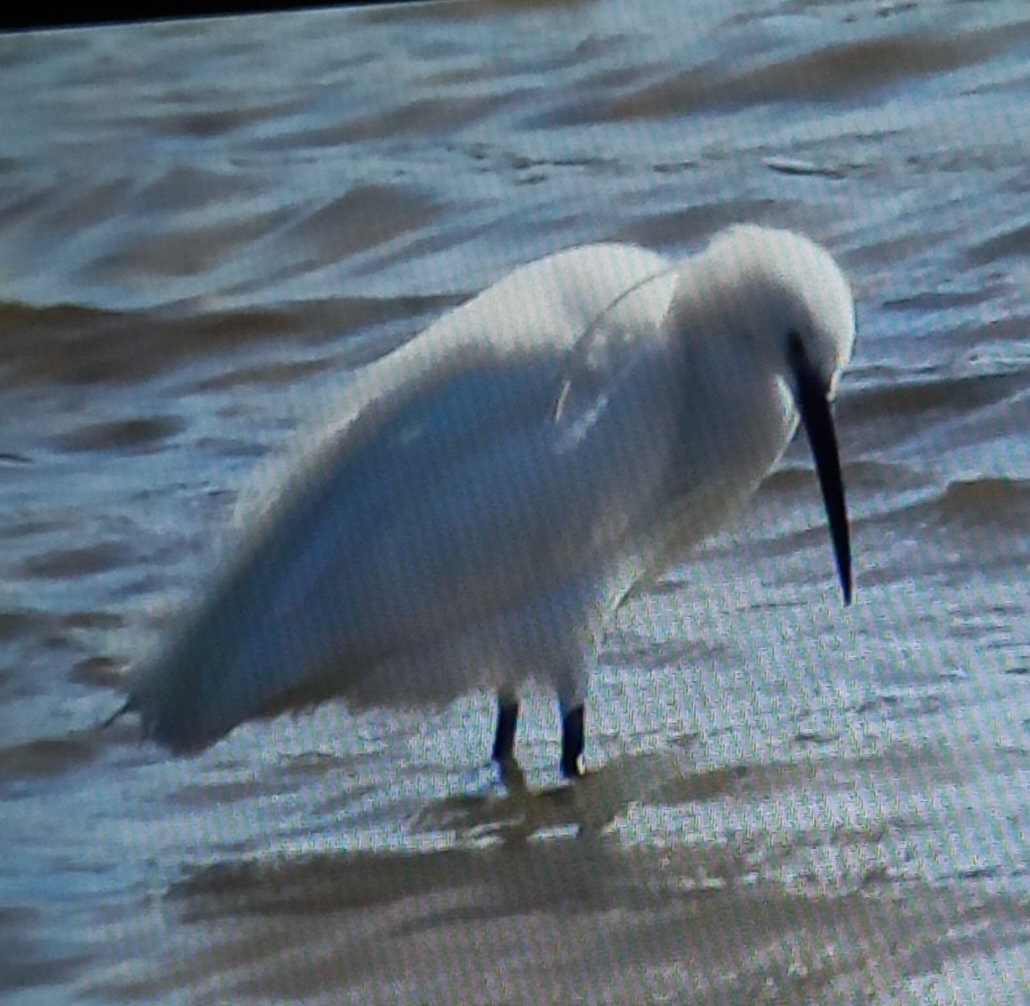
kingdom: Animalia
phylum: Chordata
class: Aves
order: Pelecaniformes
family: Ardeidae
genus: Egretta
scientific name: Egretta garzetta
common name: Little egret
